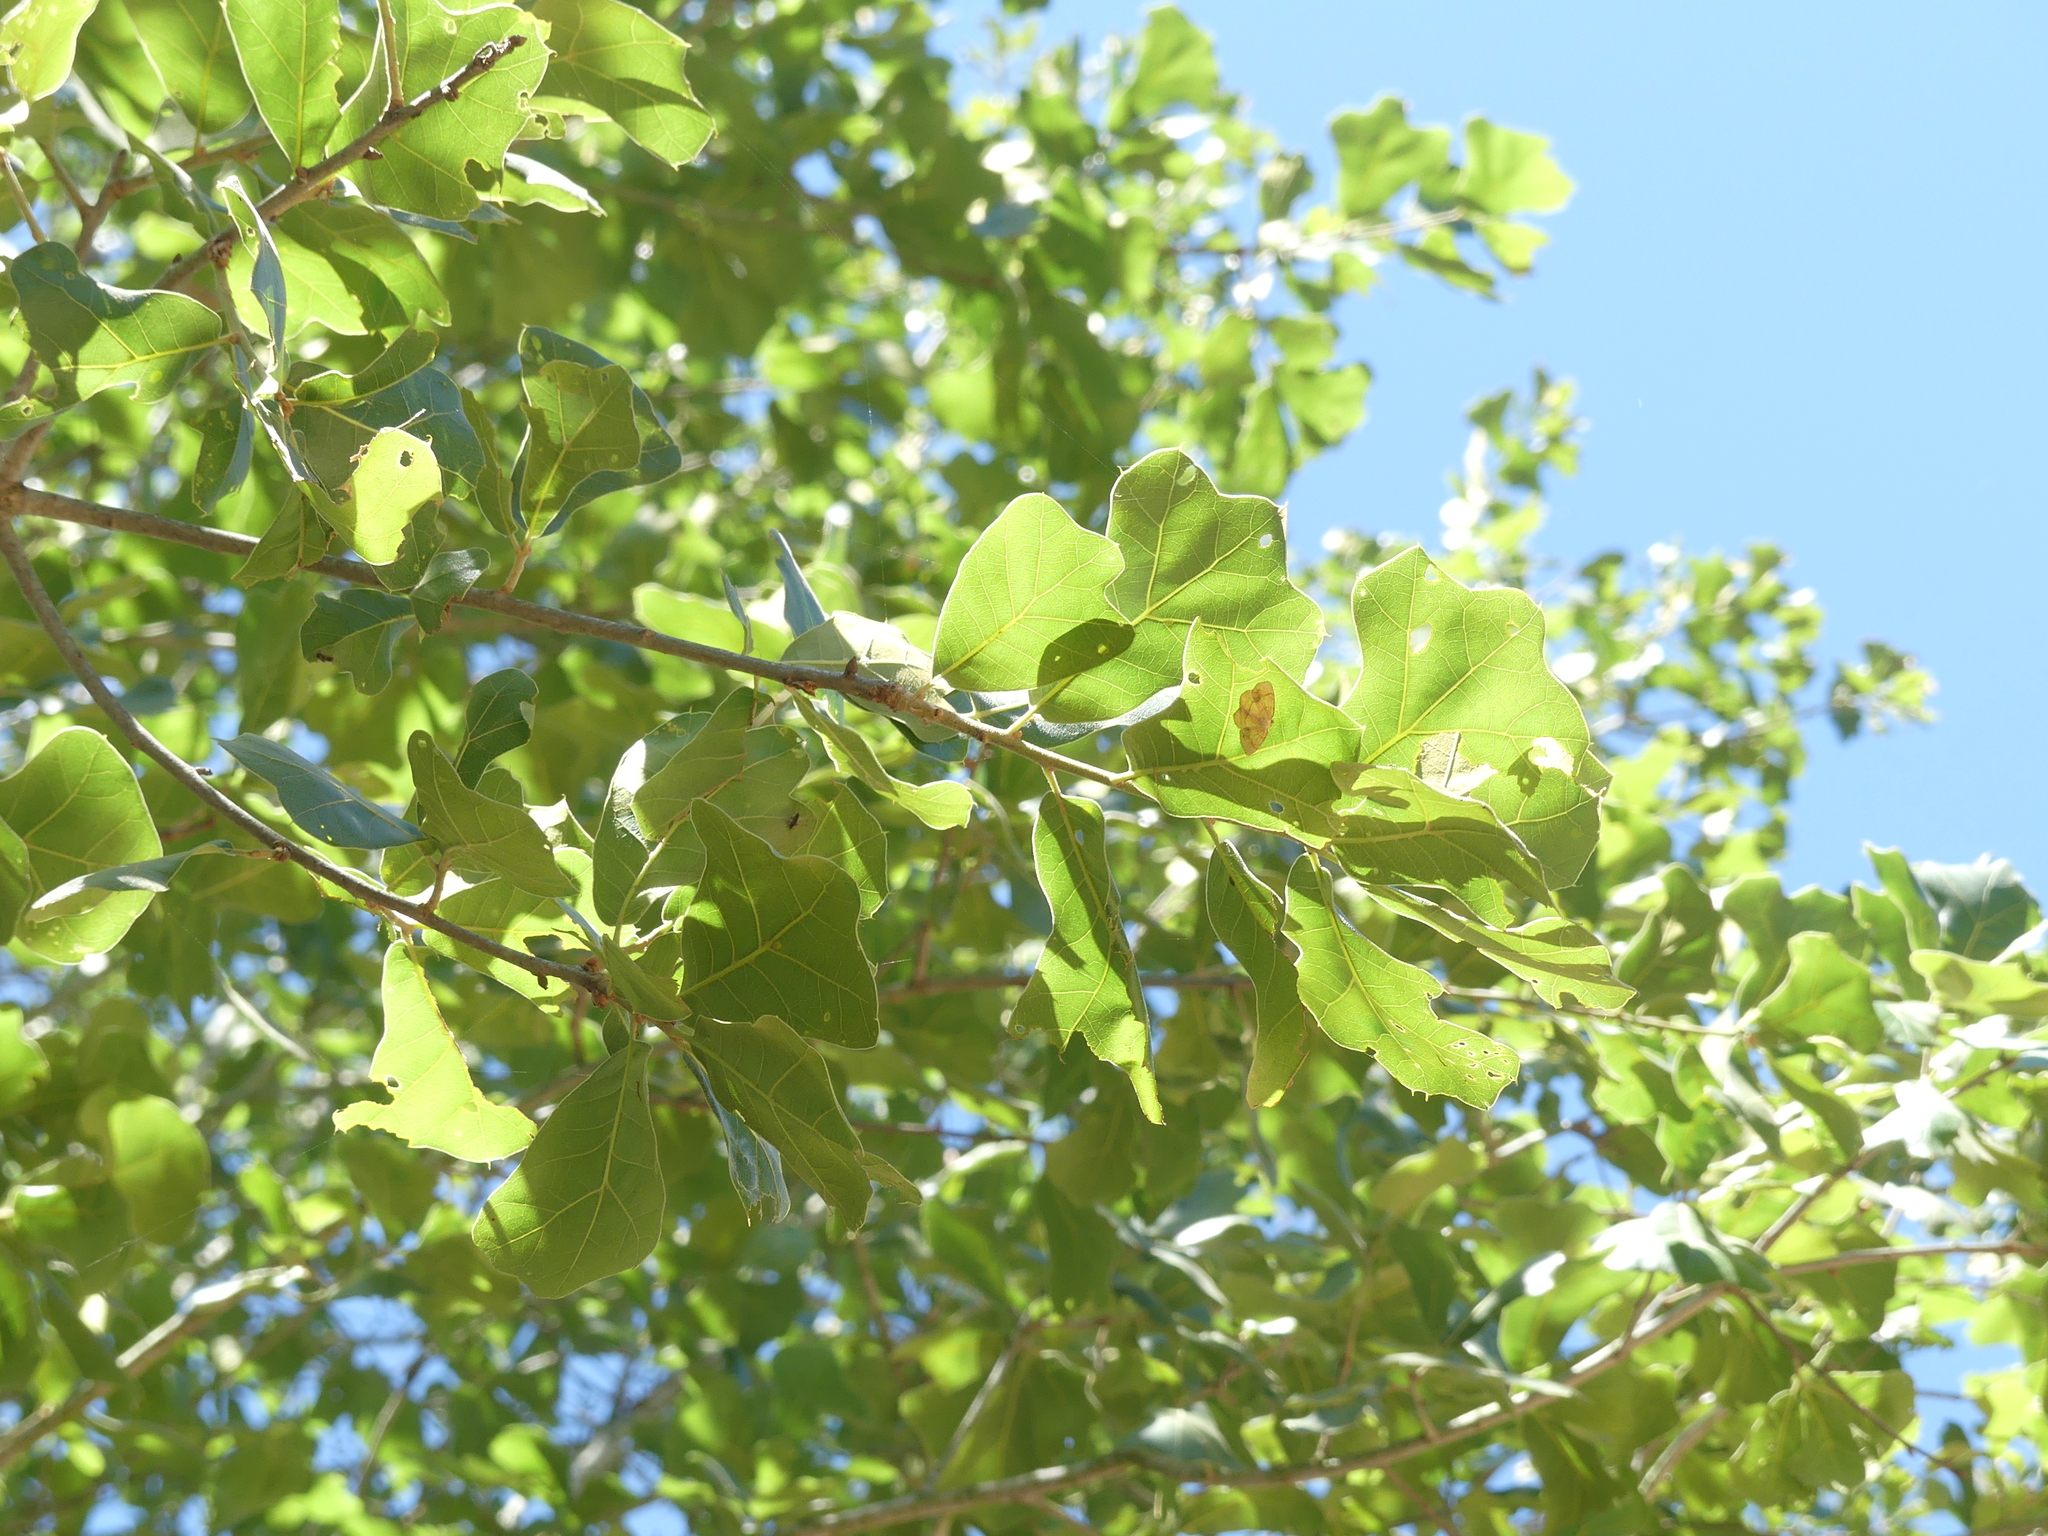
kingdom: Plantae
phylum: Tracheophyta
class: Magnoliopsida
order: Fagales
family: Fagaceae
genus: Quercus
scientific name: Quercus marilandica
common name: Blackjack oak
